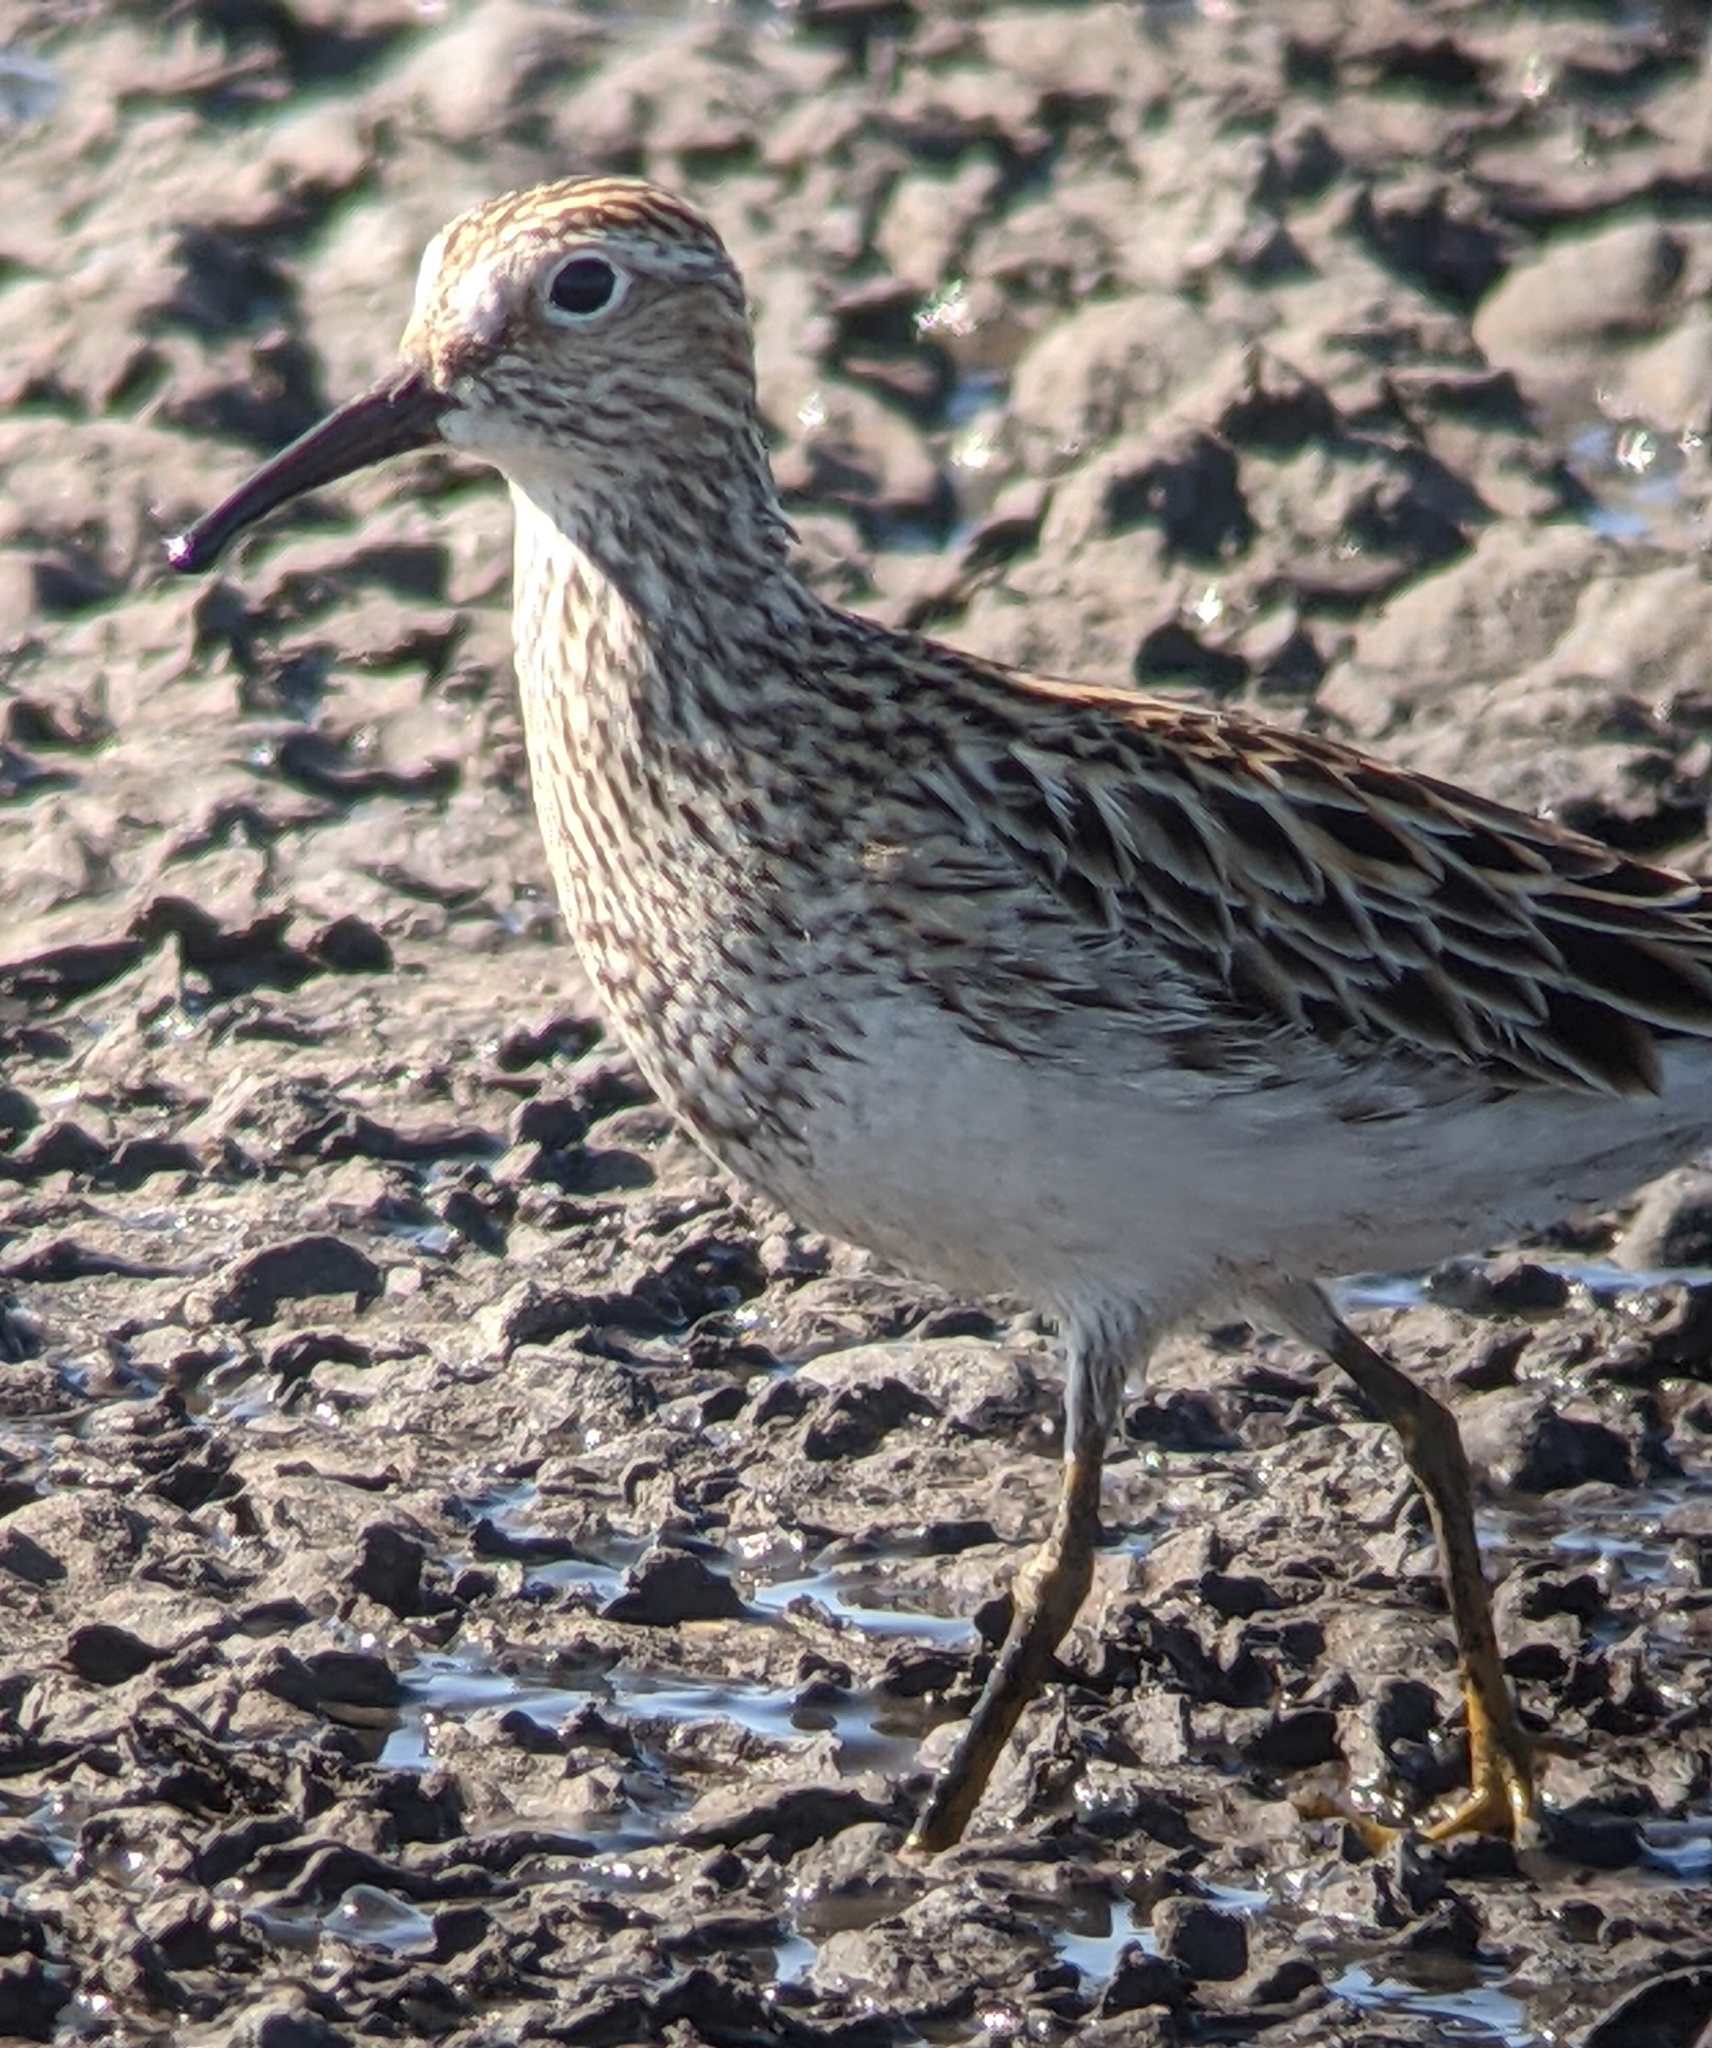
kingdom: Animalia
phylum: Chordata
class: Aves
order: Charadriiformes
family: Scolopacidae
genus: Calidris
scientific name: Calidris melanotos
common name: Pectoral sandpiper
